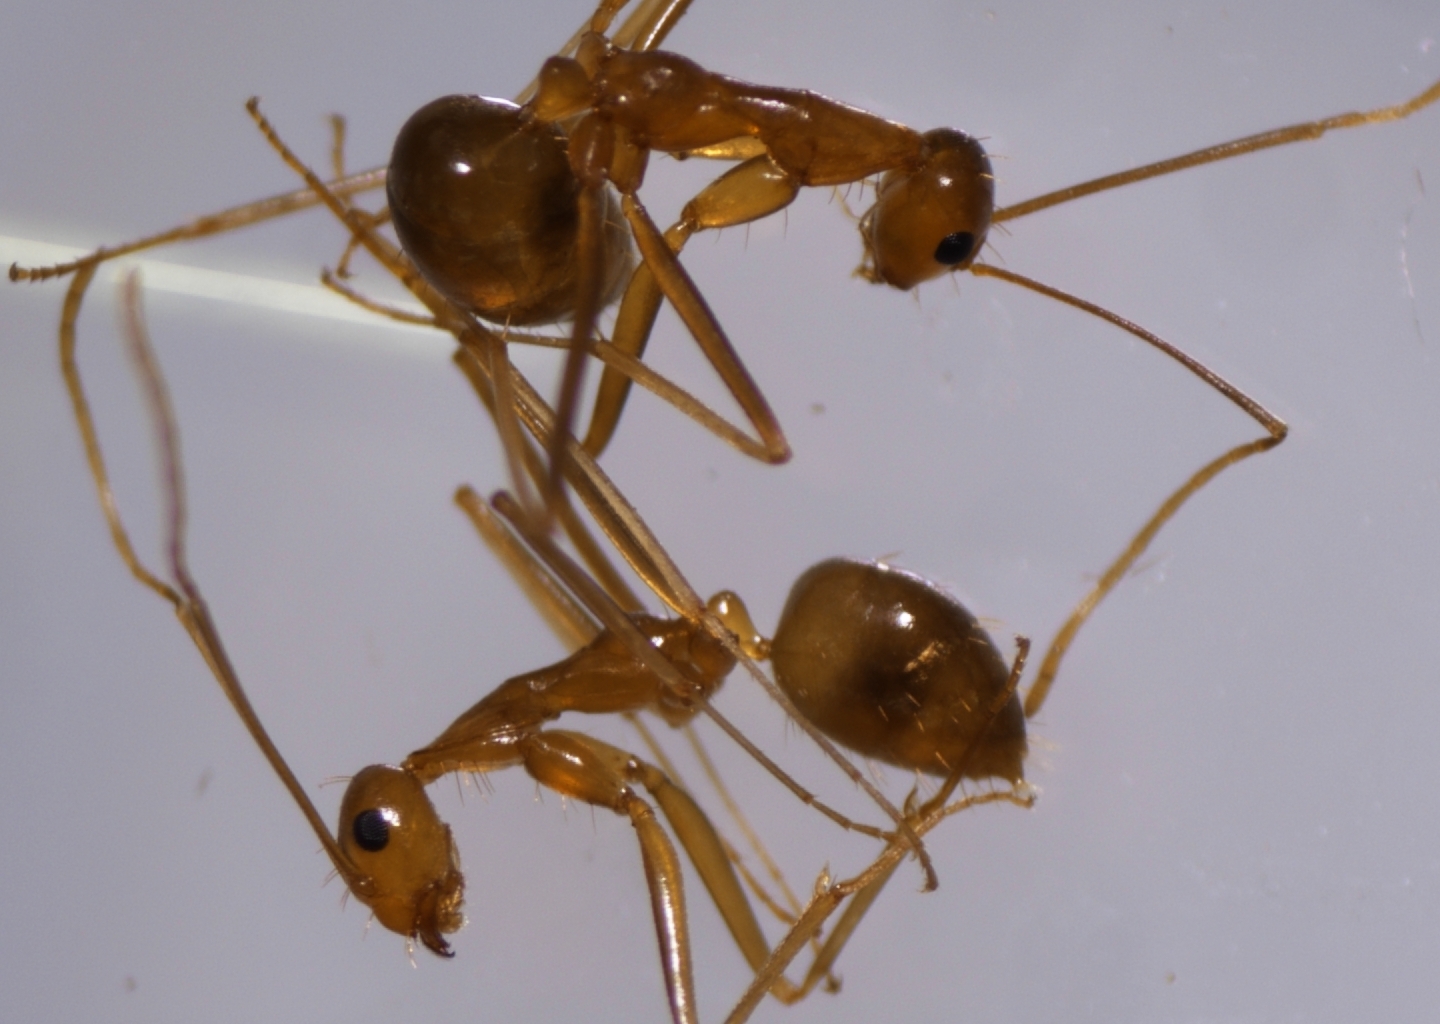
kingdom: Animalia
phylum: Arthropoda
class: Insecta
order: Hymenoptera
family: Formicidae
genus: Anoplolepis
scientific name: Anoplolepis gracilipes
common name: Ant
